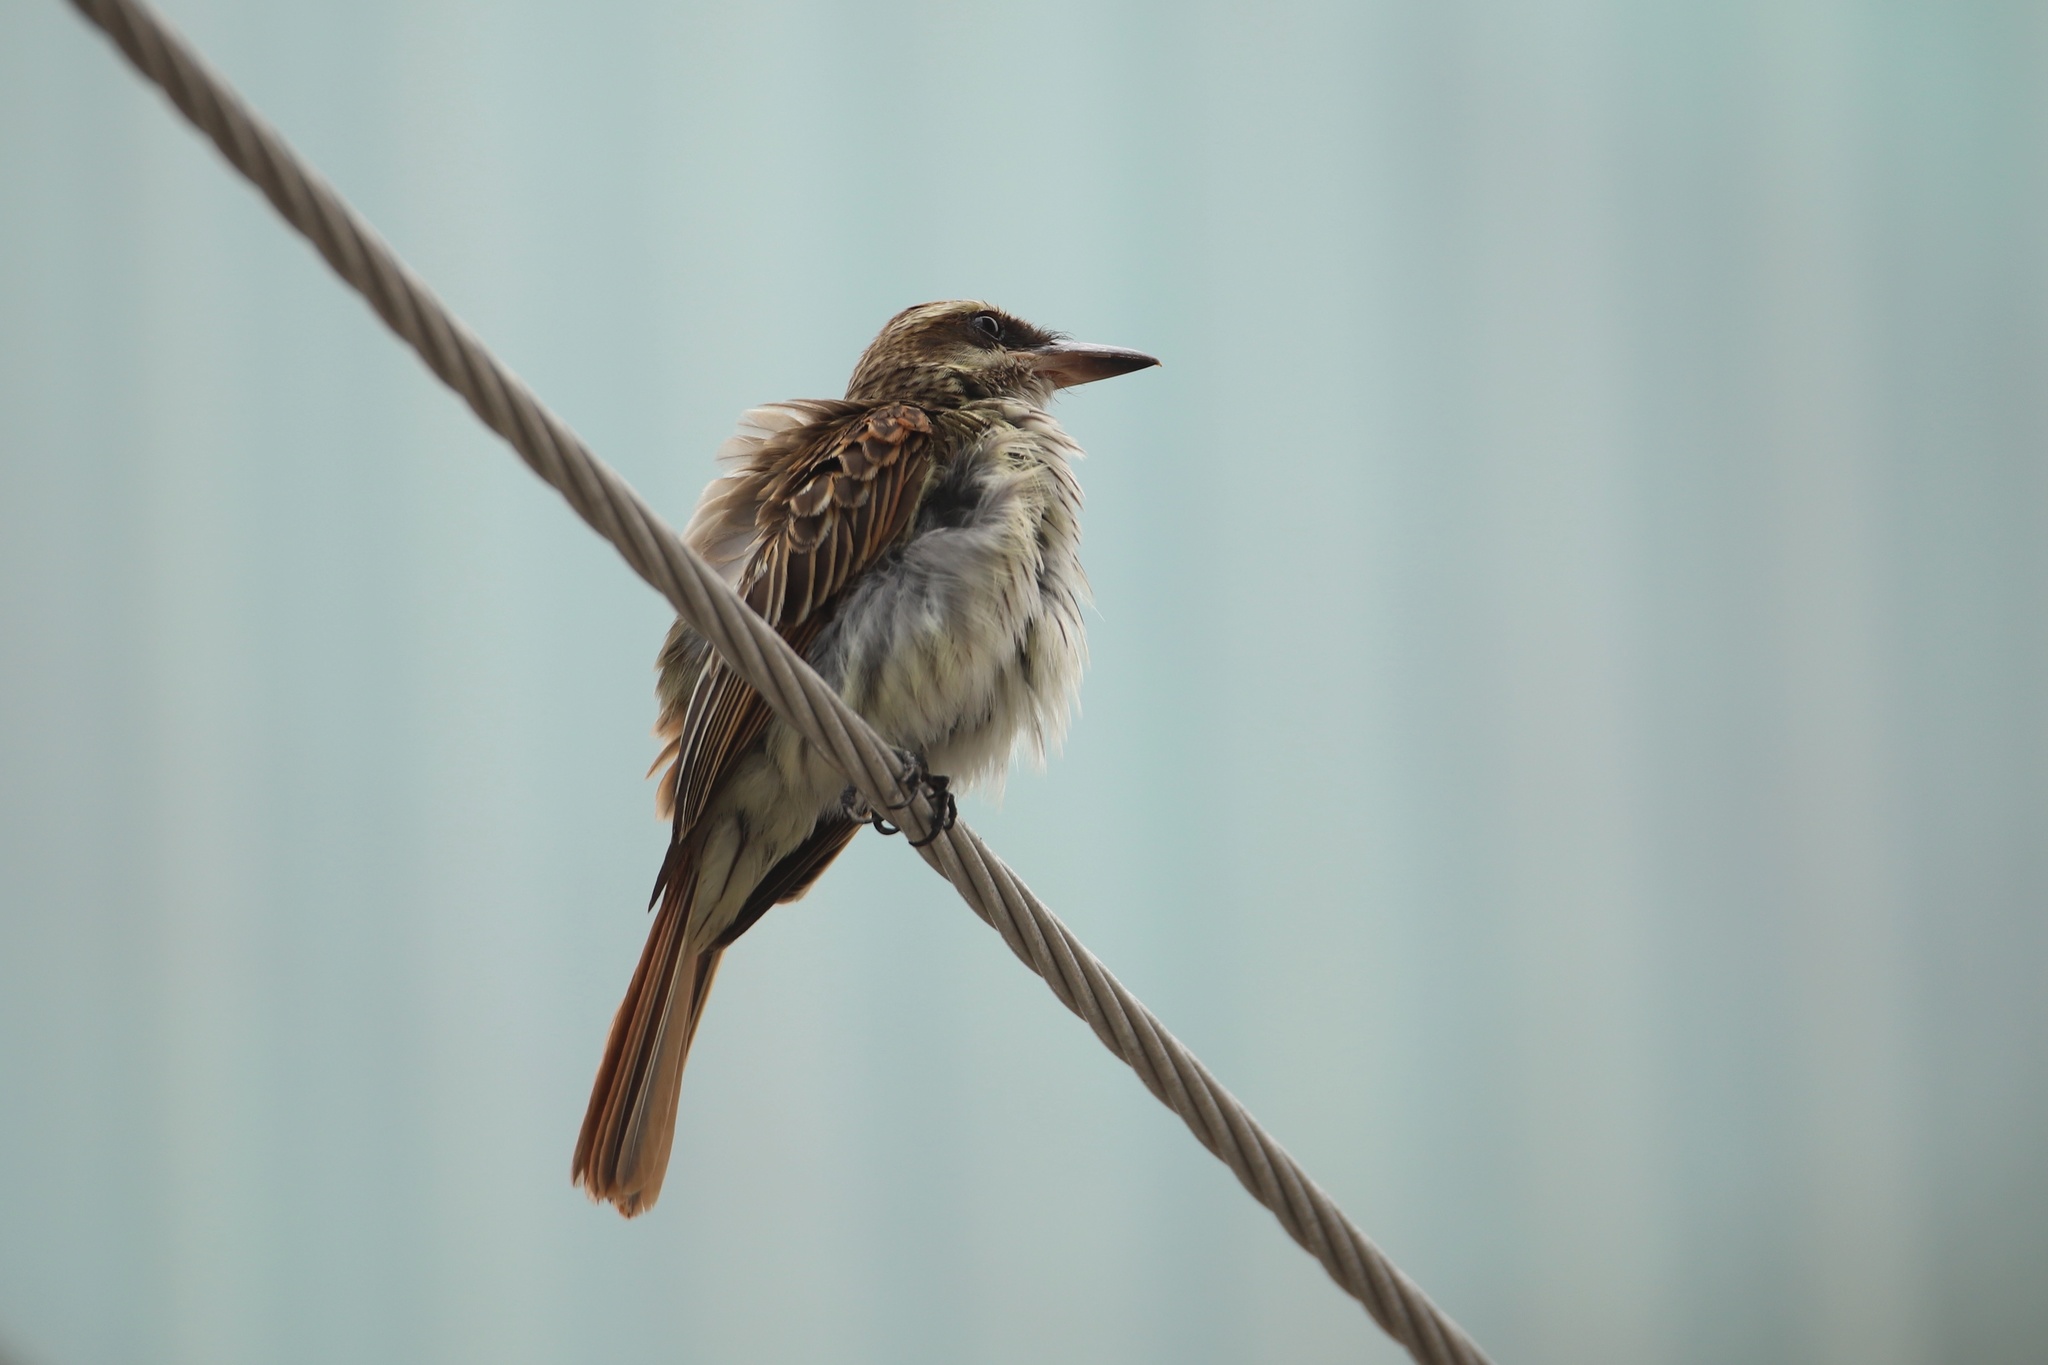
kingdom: Animalia
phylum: Chordata
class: Aves
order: Passeriformes
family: Tyrannidae
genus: Myiodynastes
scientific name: Myiodynastes maculatus
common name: Streaked flycatcher
